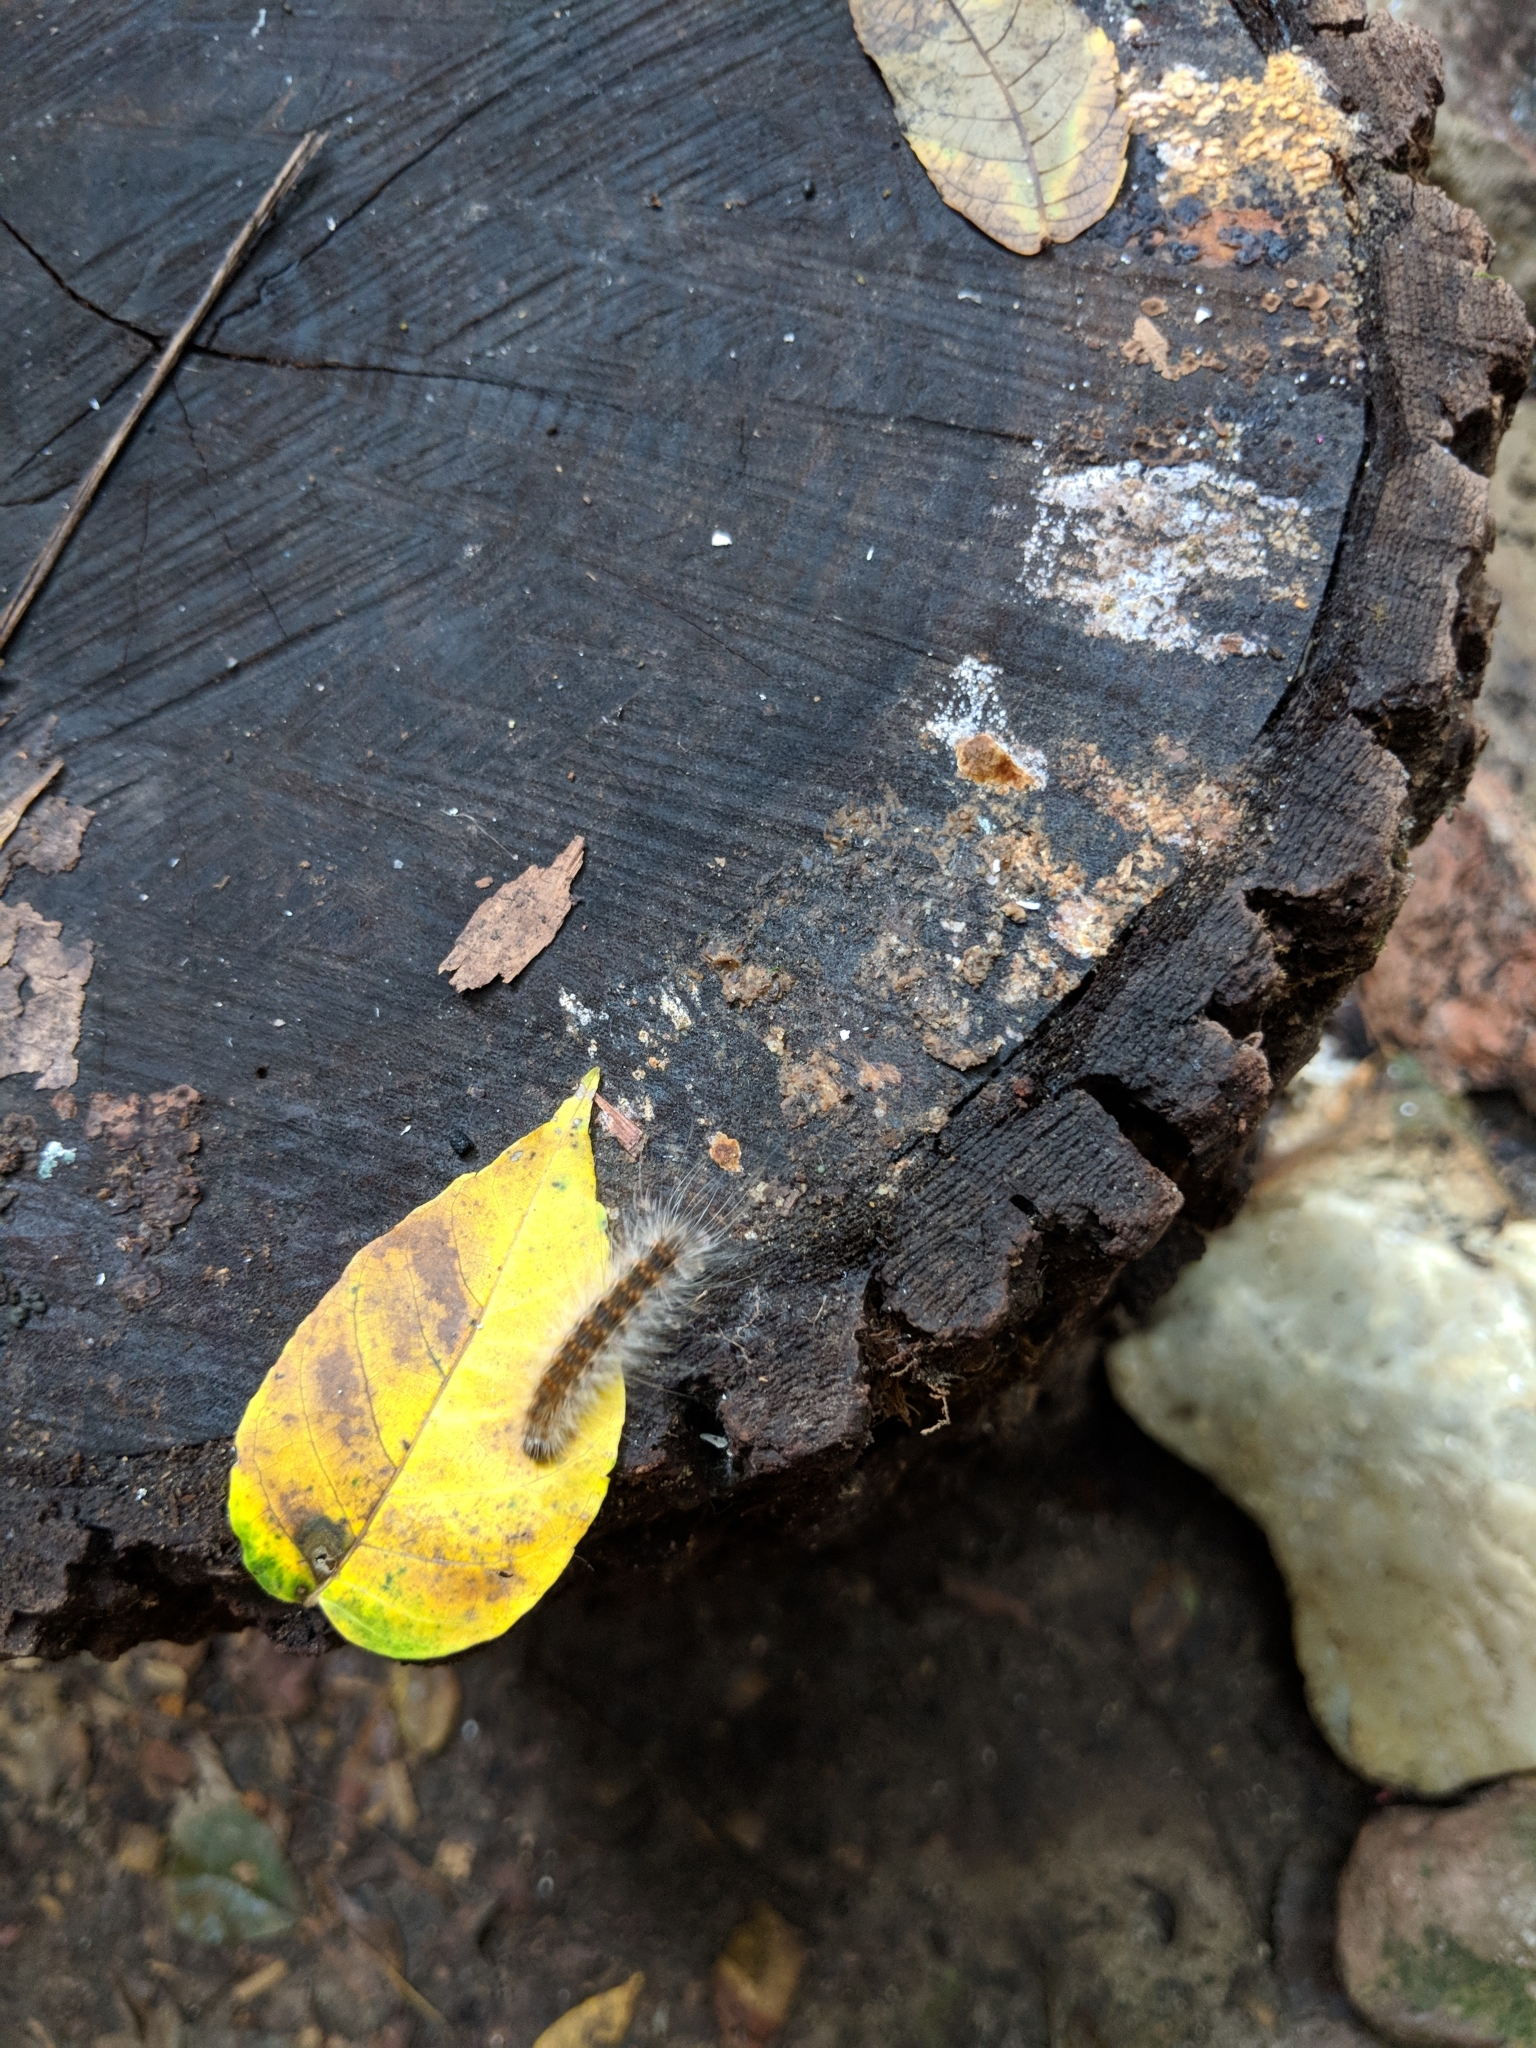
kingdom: Animalia
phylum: Arthropoda
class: Insecta
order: Lepidoptera
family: Erebidae
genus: Hyphantria
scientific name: Hyphantria cunea
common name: American white moth
